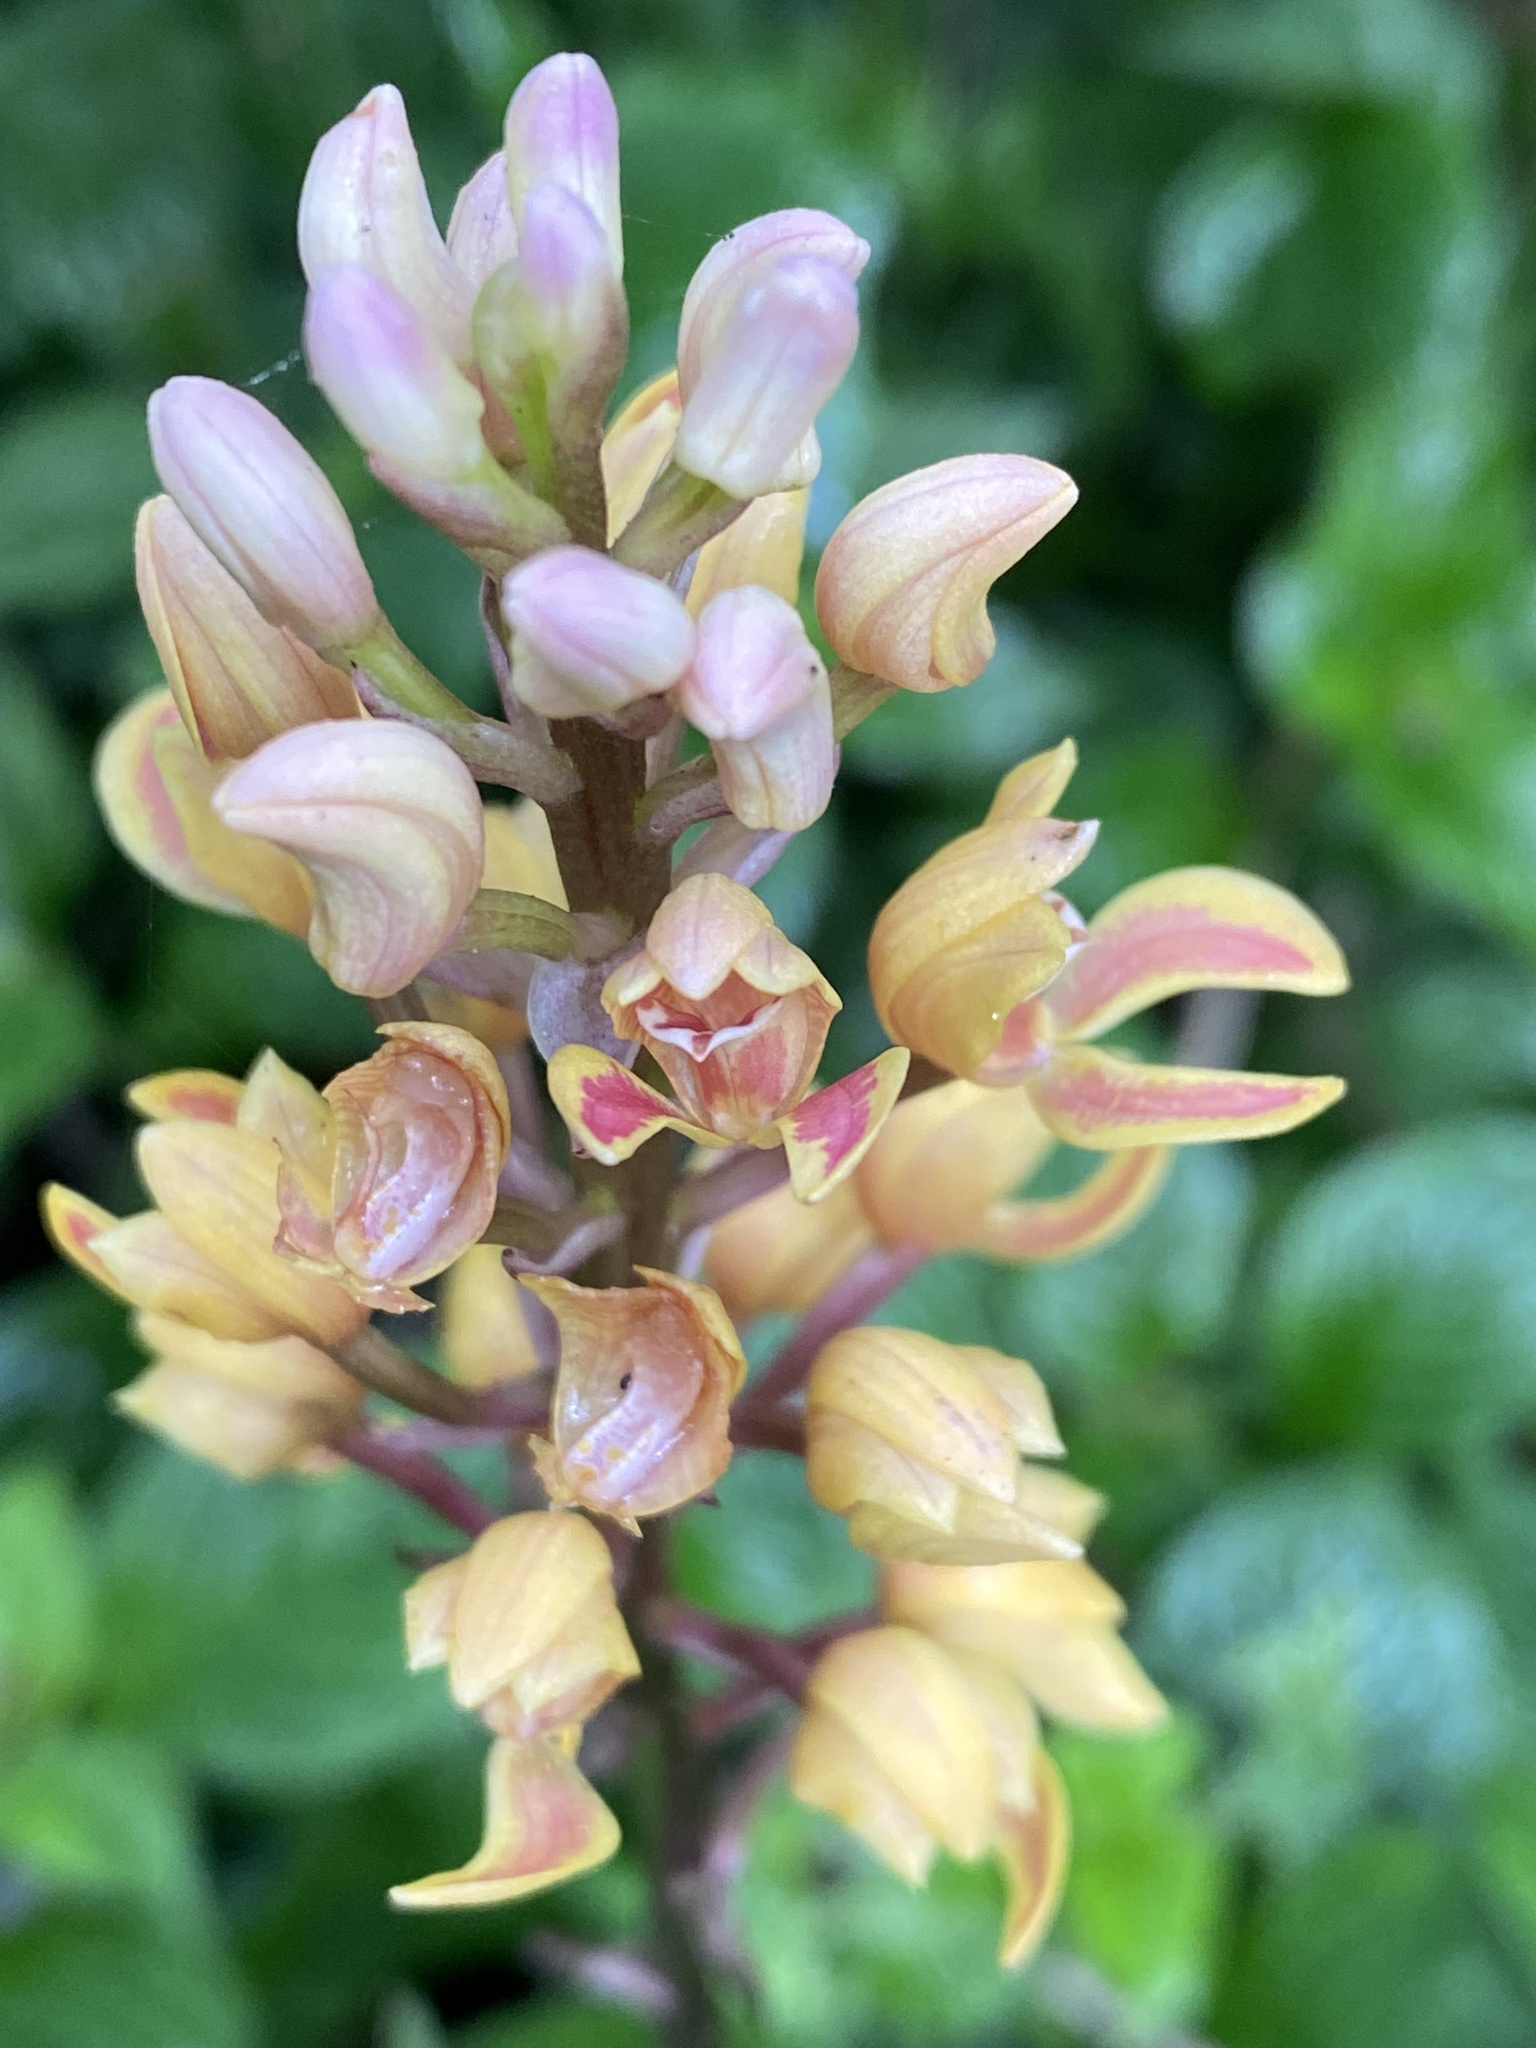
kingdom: Plantae
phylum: Tracheophyta
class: Liliopsida
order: Asparagales
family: Orchidaceae
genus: Govenia
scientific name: Govenia matudae
